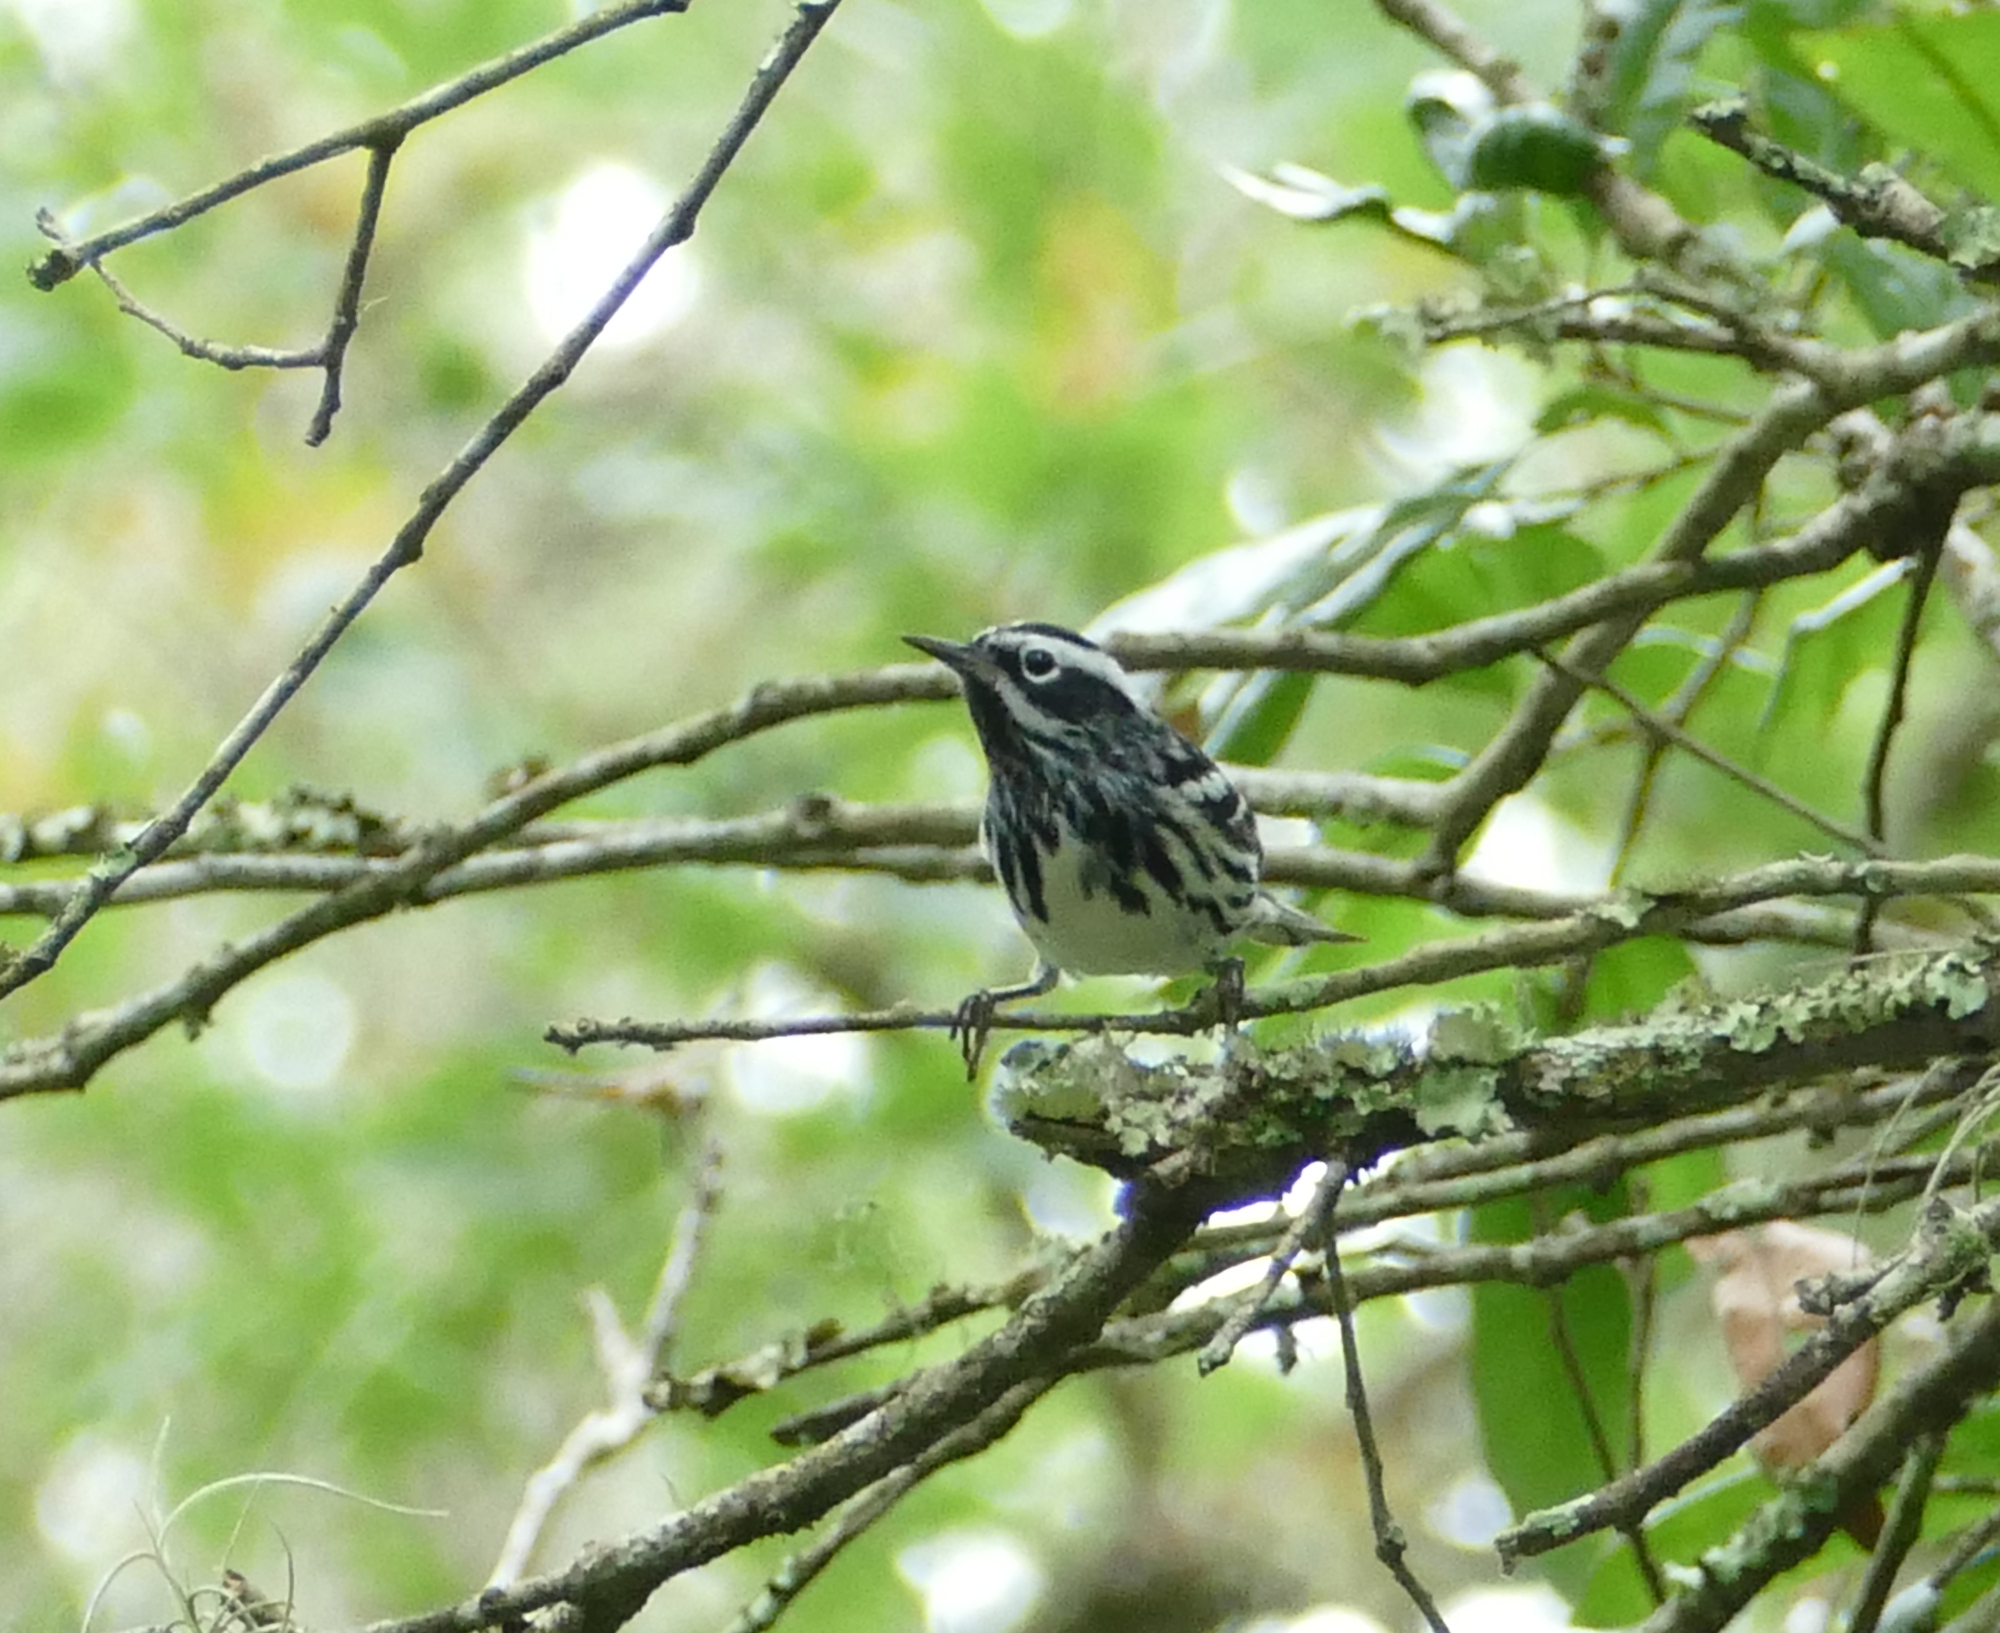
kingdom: Animalia
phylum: Chordata
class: Aves
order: Passeriformes
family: Parulidae
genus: Mniotilta
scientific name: Mniotilta varia
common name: Black-and-white warbler
